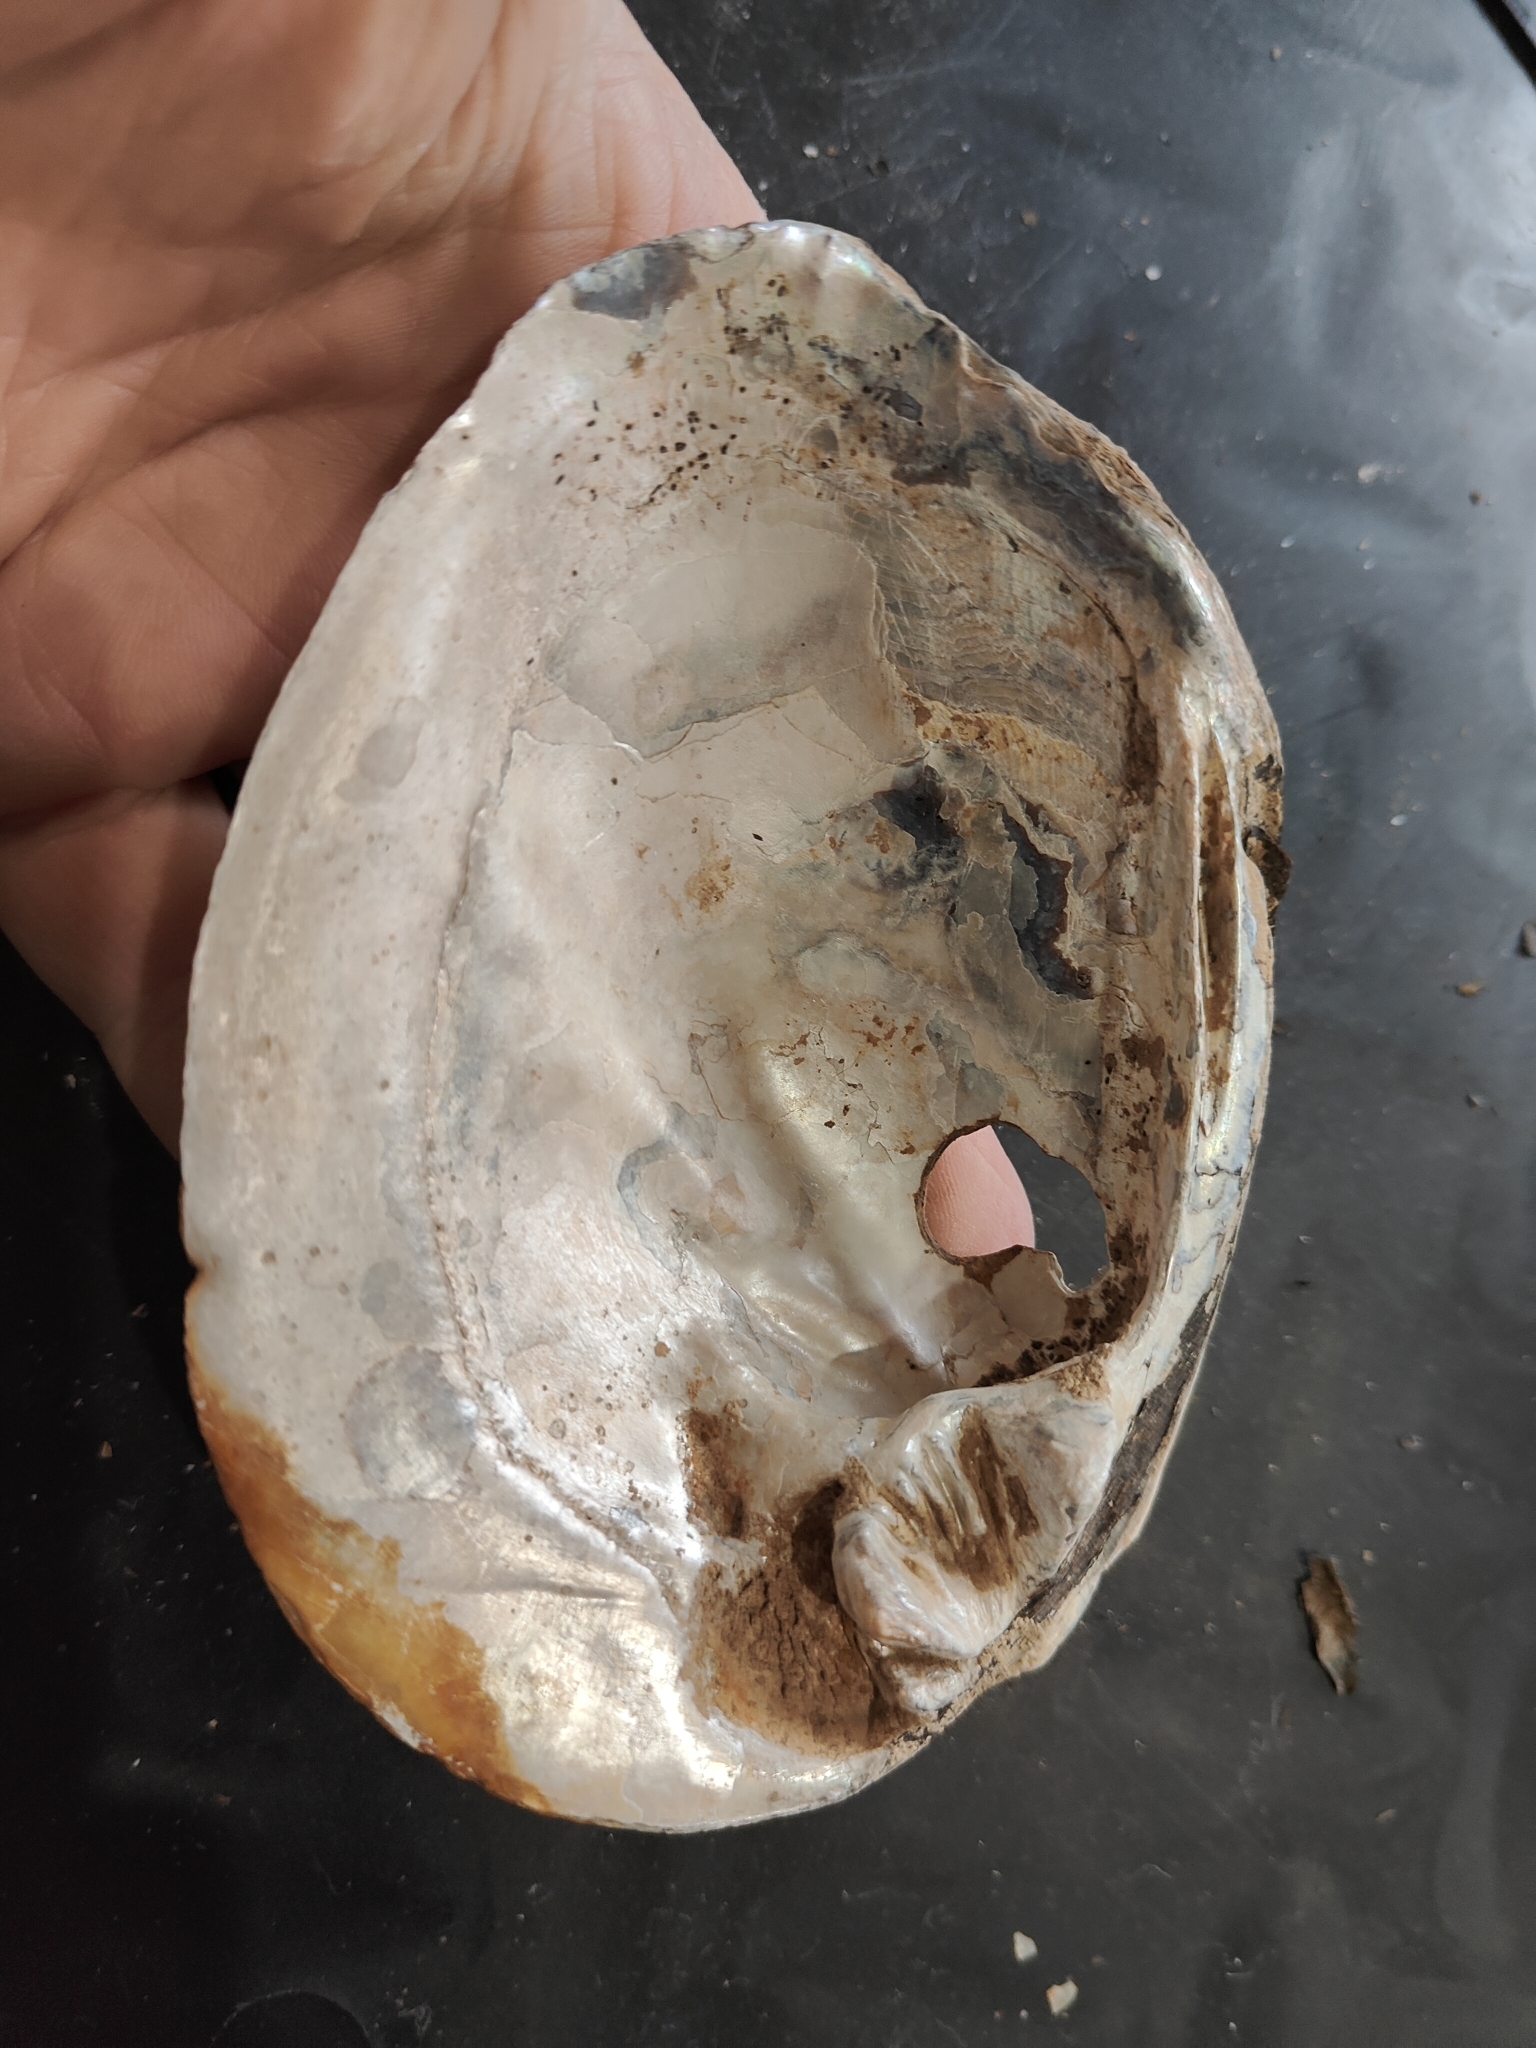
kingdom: Animalia
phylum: Mollusca
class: Bivalvia
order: Unionida
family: Unionidae
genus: Amblema
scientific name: Amblema plicata
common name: Threeridge
